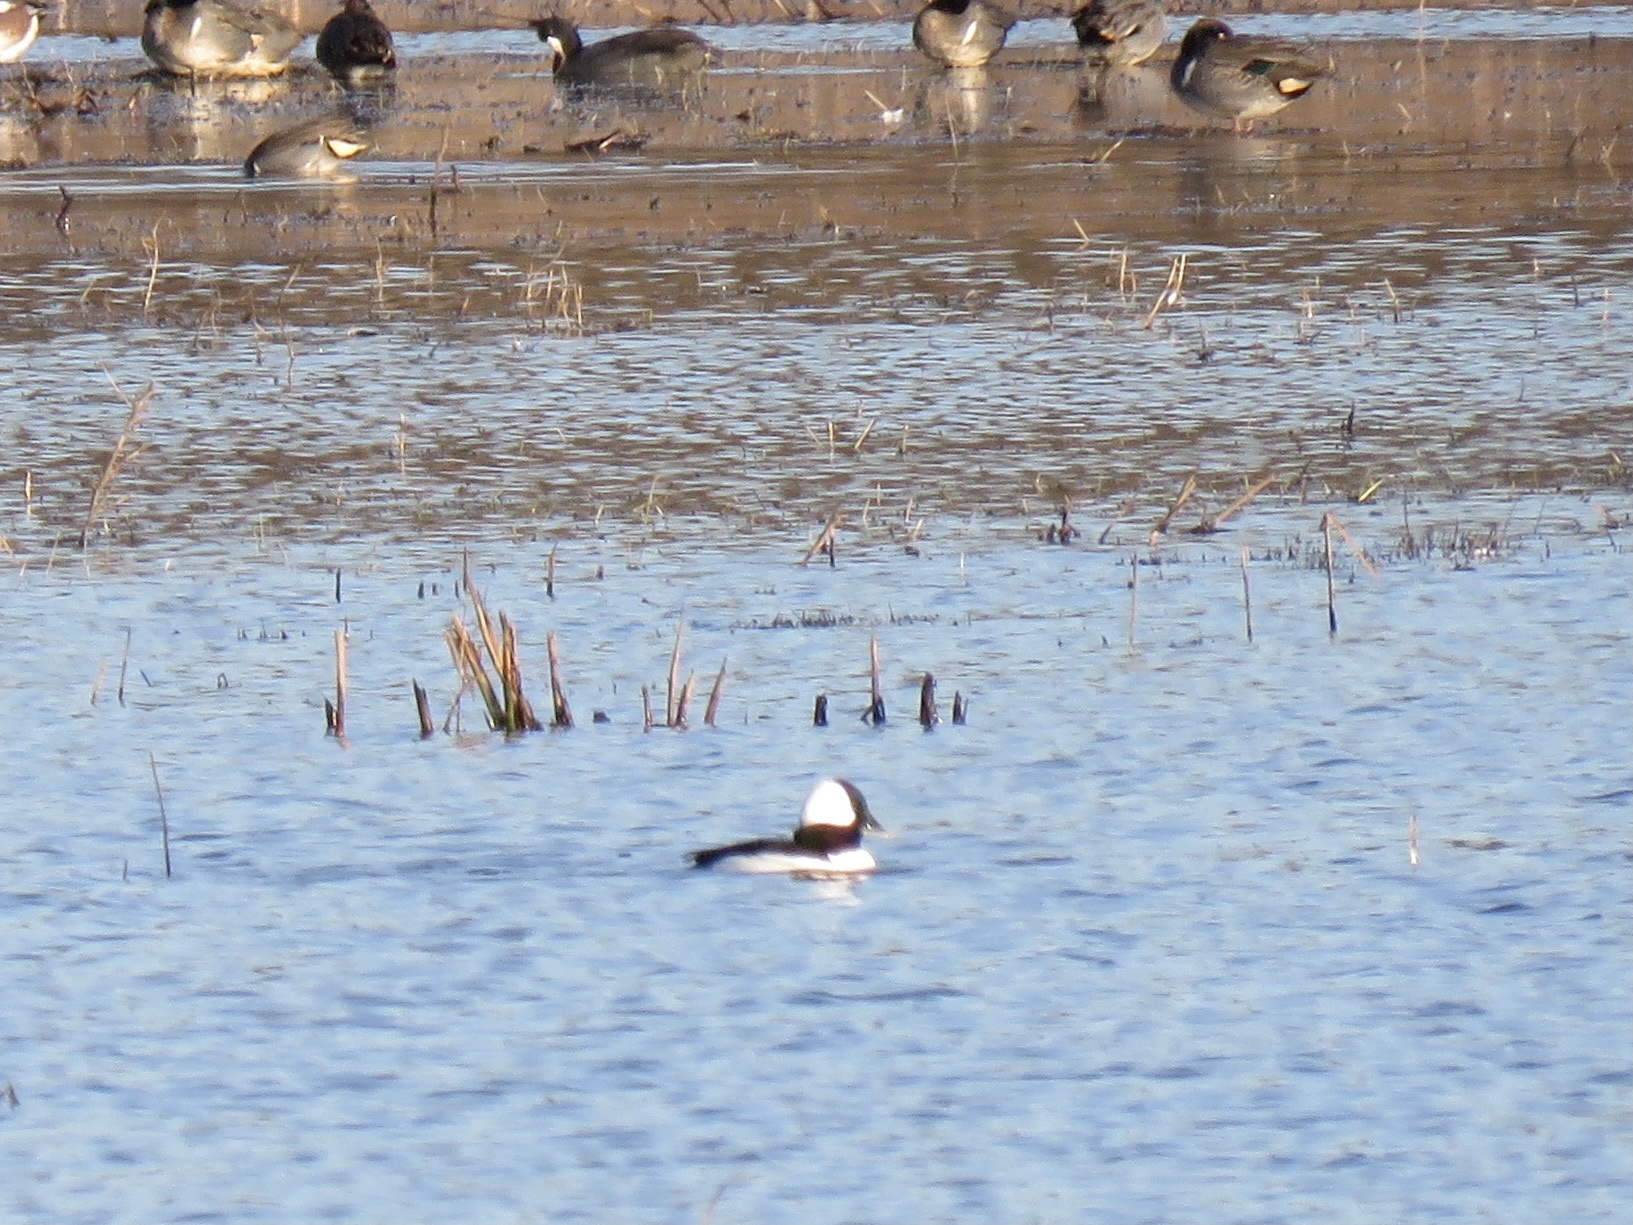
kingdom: Animalia
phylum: Chordata
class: Aves
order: Anseriformes
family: Anatidae
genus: Bucephala
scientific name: Bucephala albeola
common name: Bufflehead
